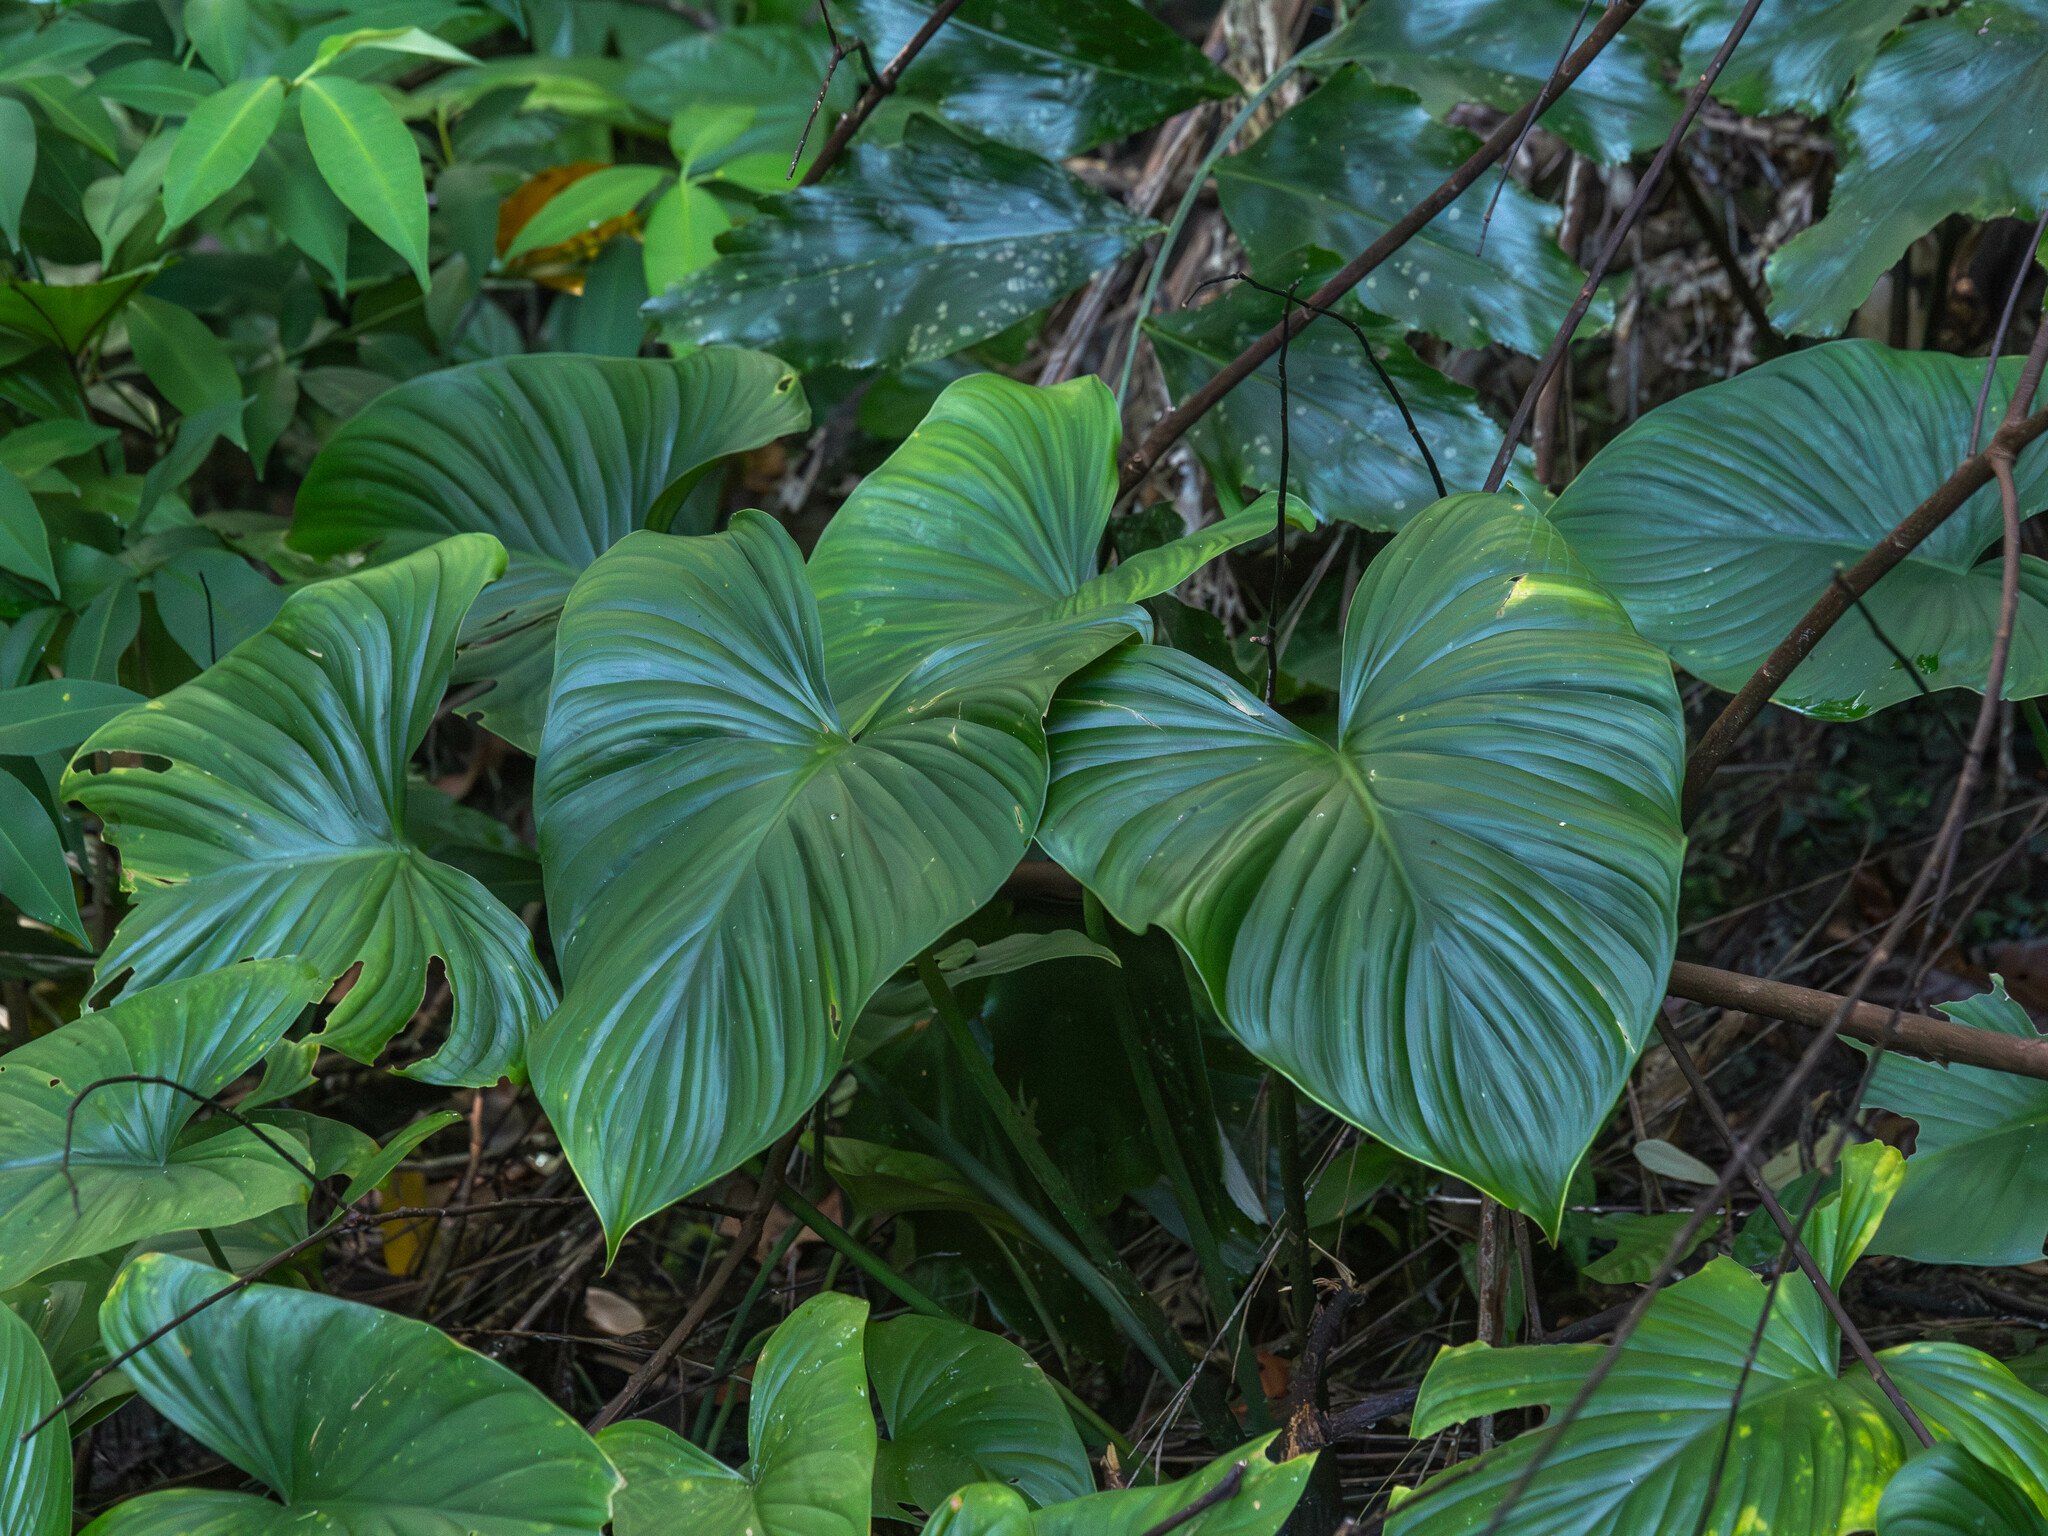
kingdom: Plantae
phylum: Tracheophyta
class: Liliopsida
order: Alismatales
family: Araceae
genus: Homalomena
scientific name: Homalomena philippinensis
